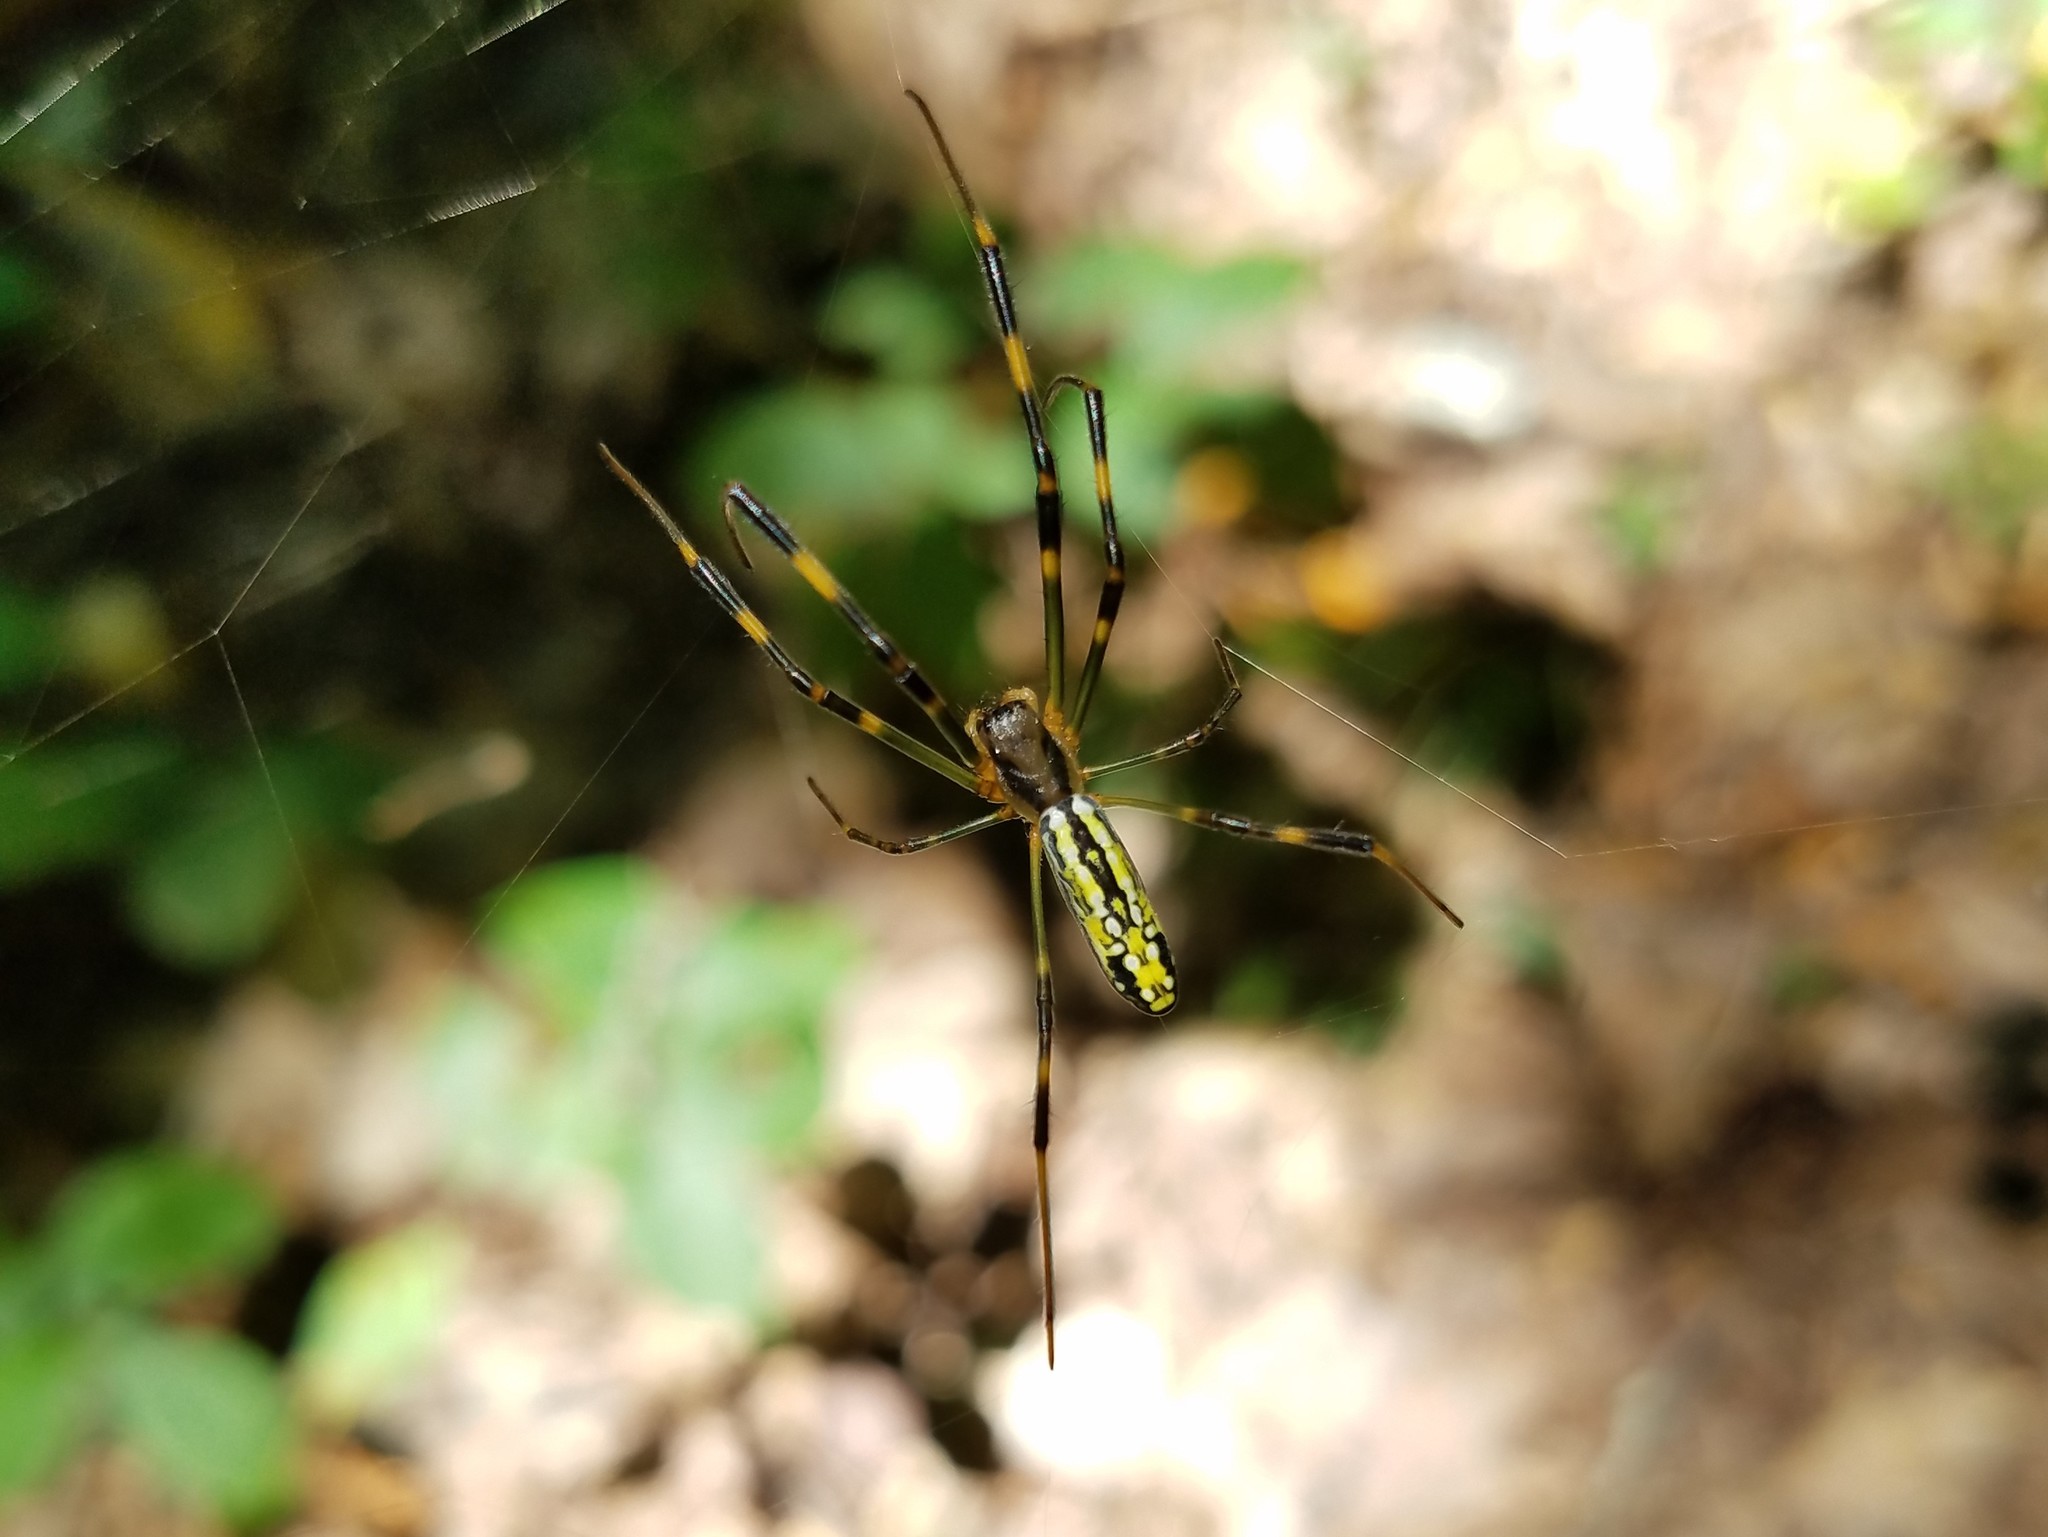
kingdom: Animalia
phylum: Arthropoda
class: Arachnida
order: Araneae
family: Araneidae
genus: Trichonephila
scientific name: Trichonephila clavata
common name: Jorō spider
